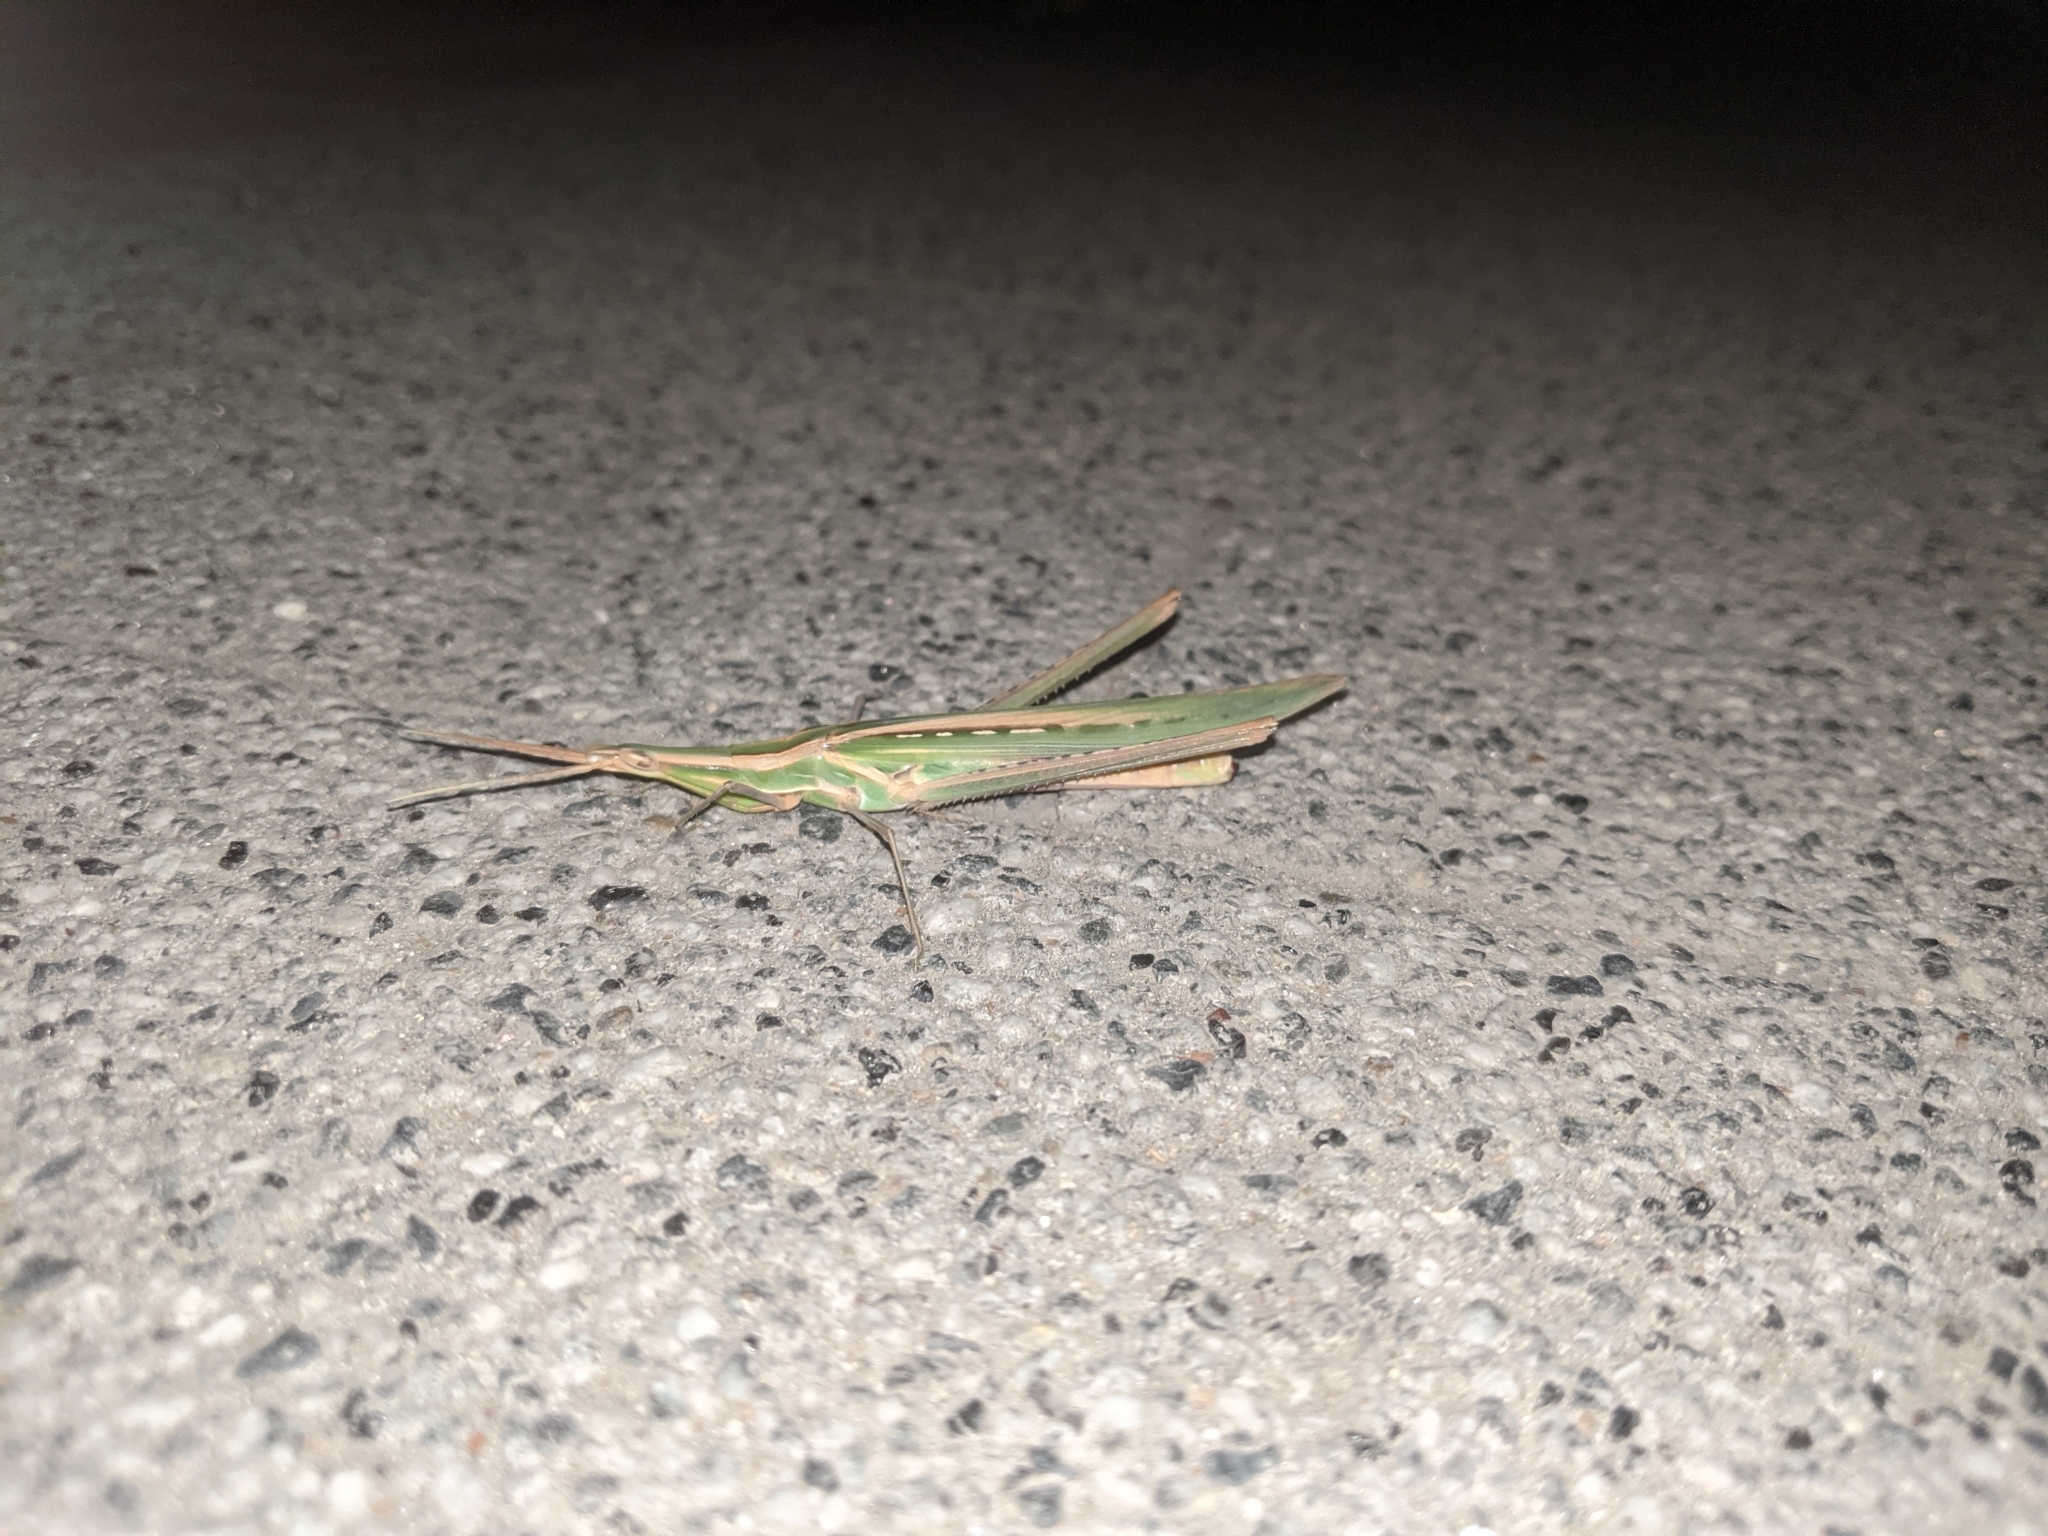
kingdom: Animalia
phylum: Arthropoda
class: Insecta
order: Orthoptera
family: Acrididae
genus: Acrida
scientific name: Acrida ungarica
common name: Common cone-headed grasshopper
